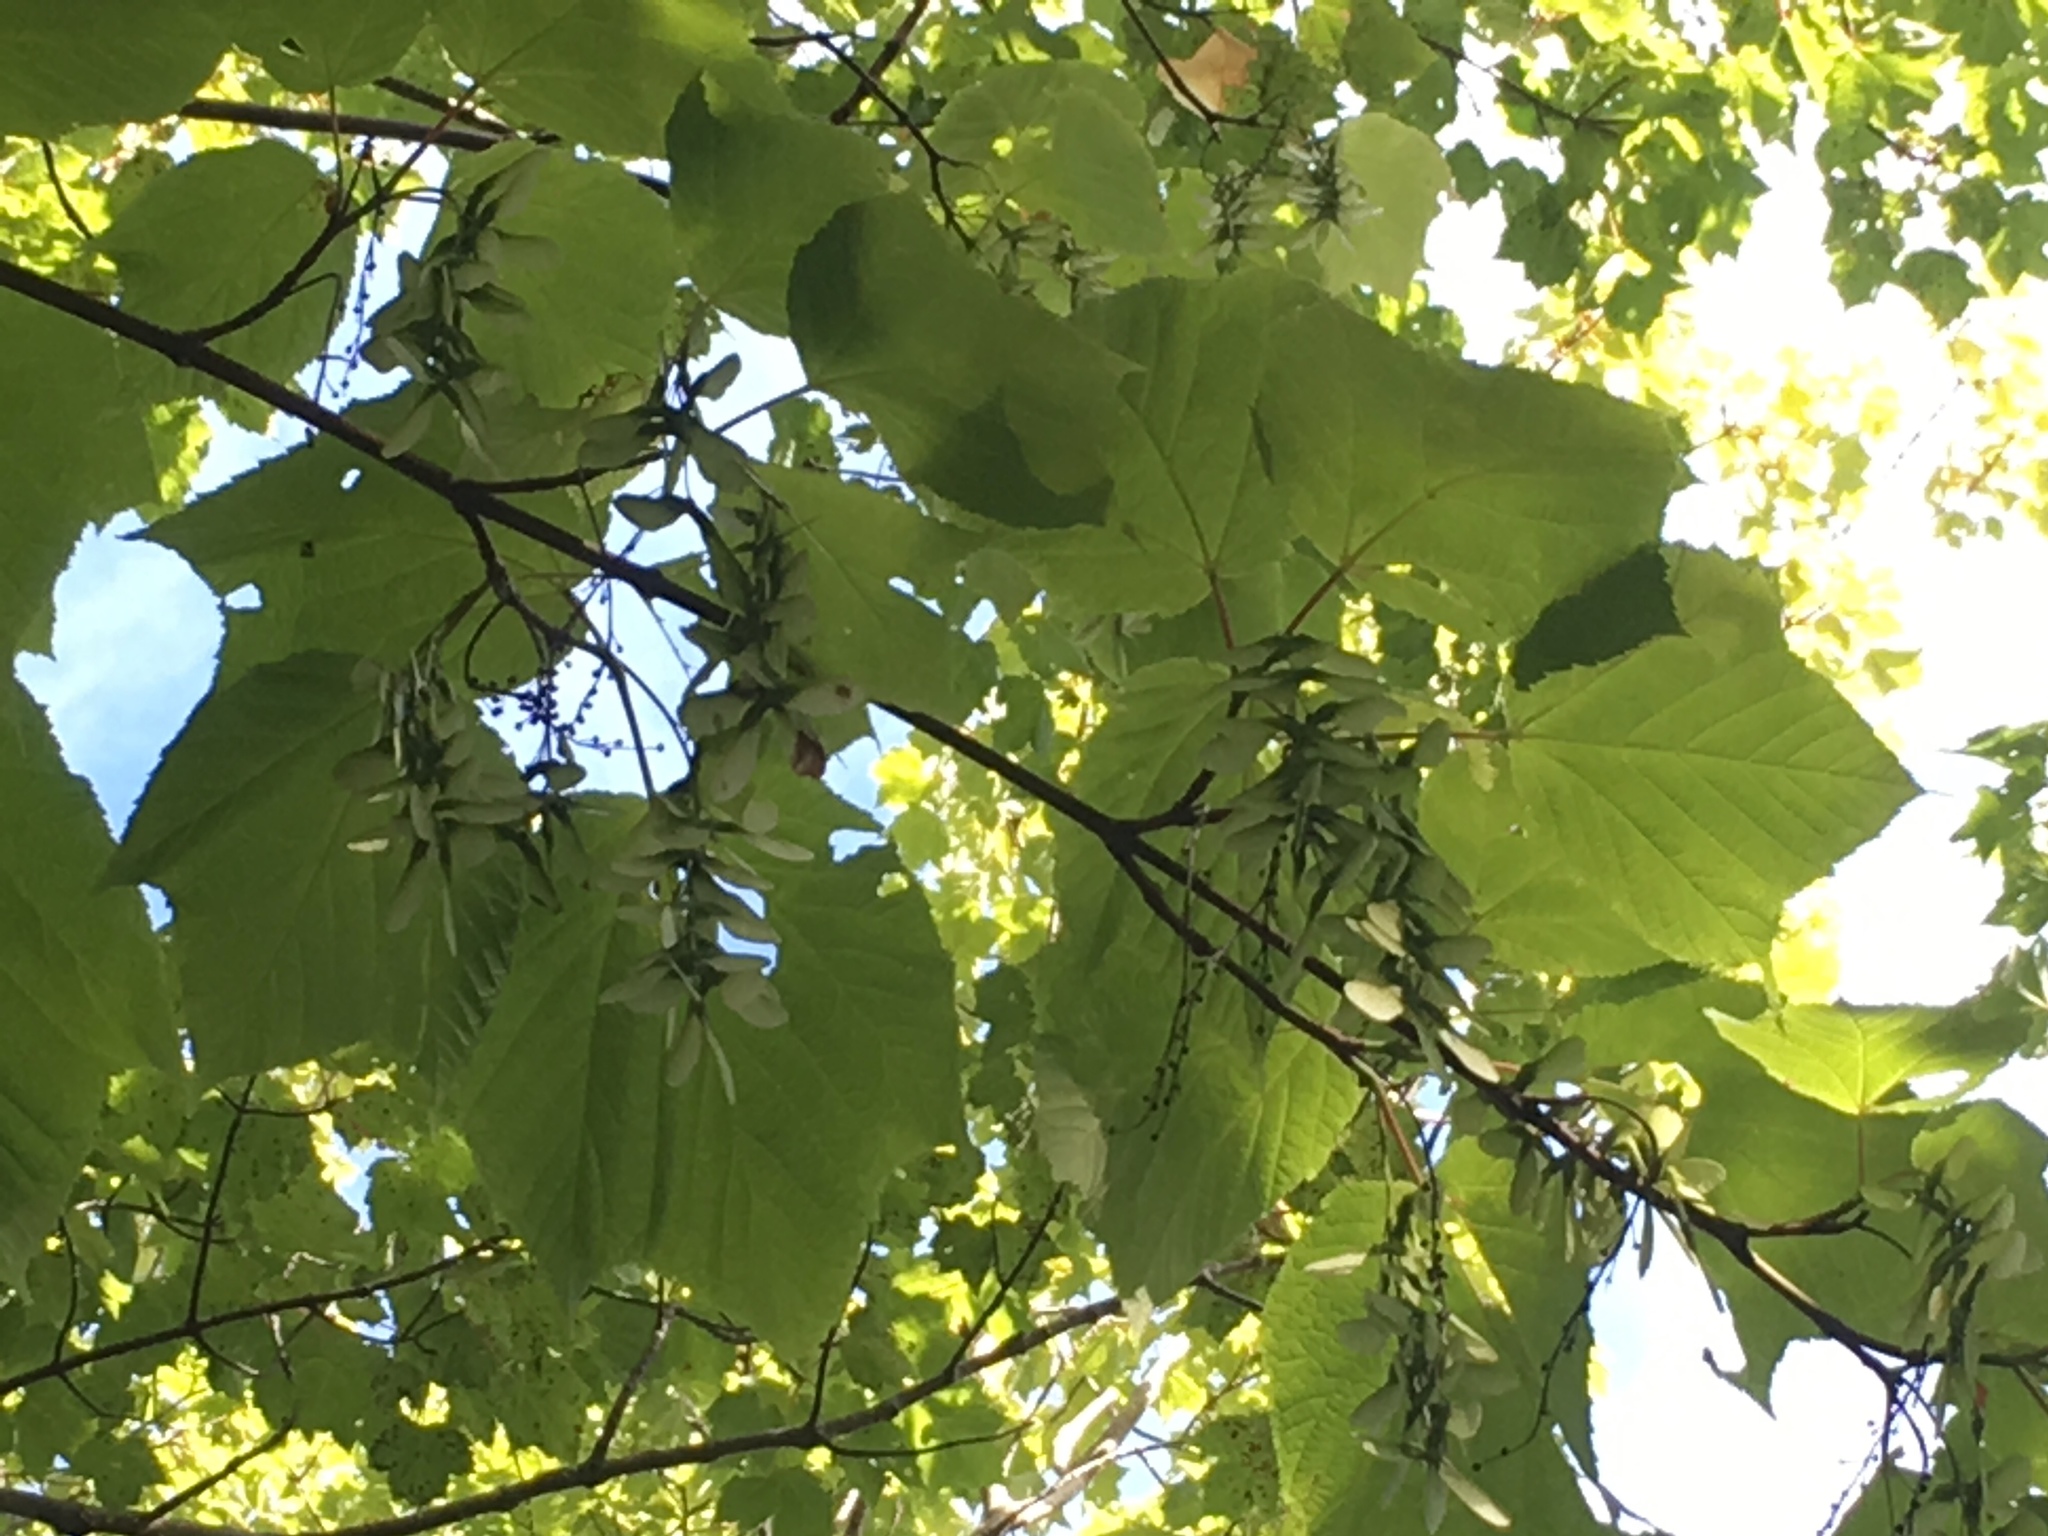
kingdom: Plantae
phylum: Tracheophyta
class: Magnoliopsida
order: Sapindales
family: Sapindaceae
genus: Acer
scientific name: Acer pensylvanicum
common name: Moosewood
